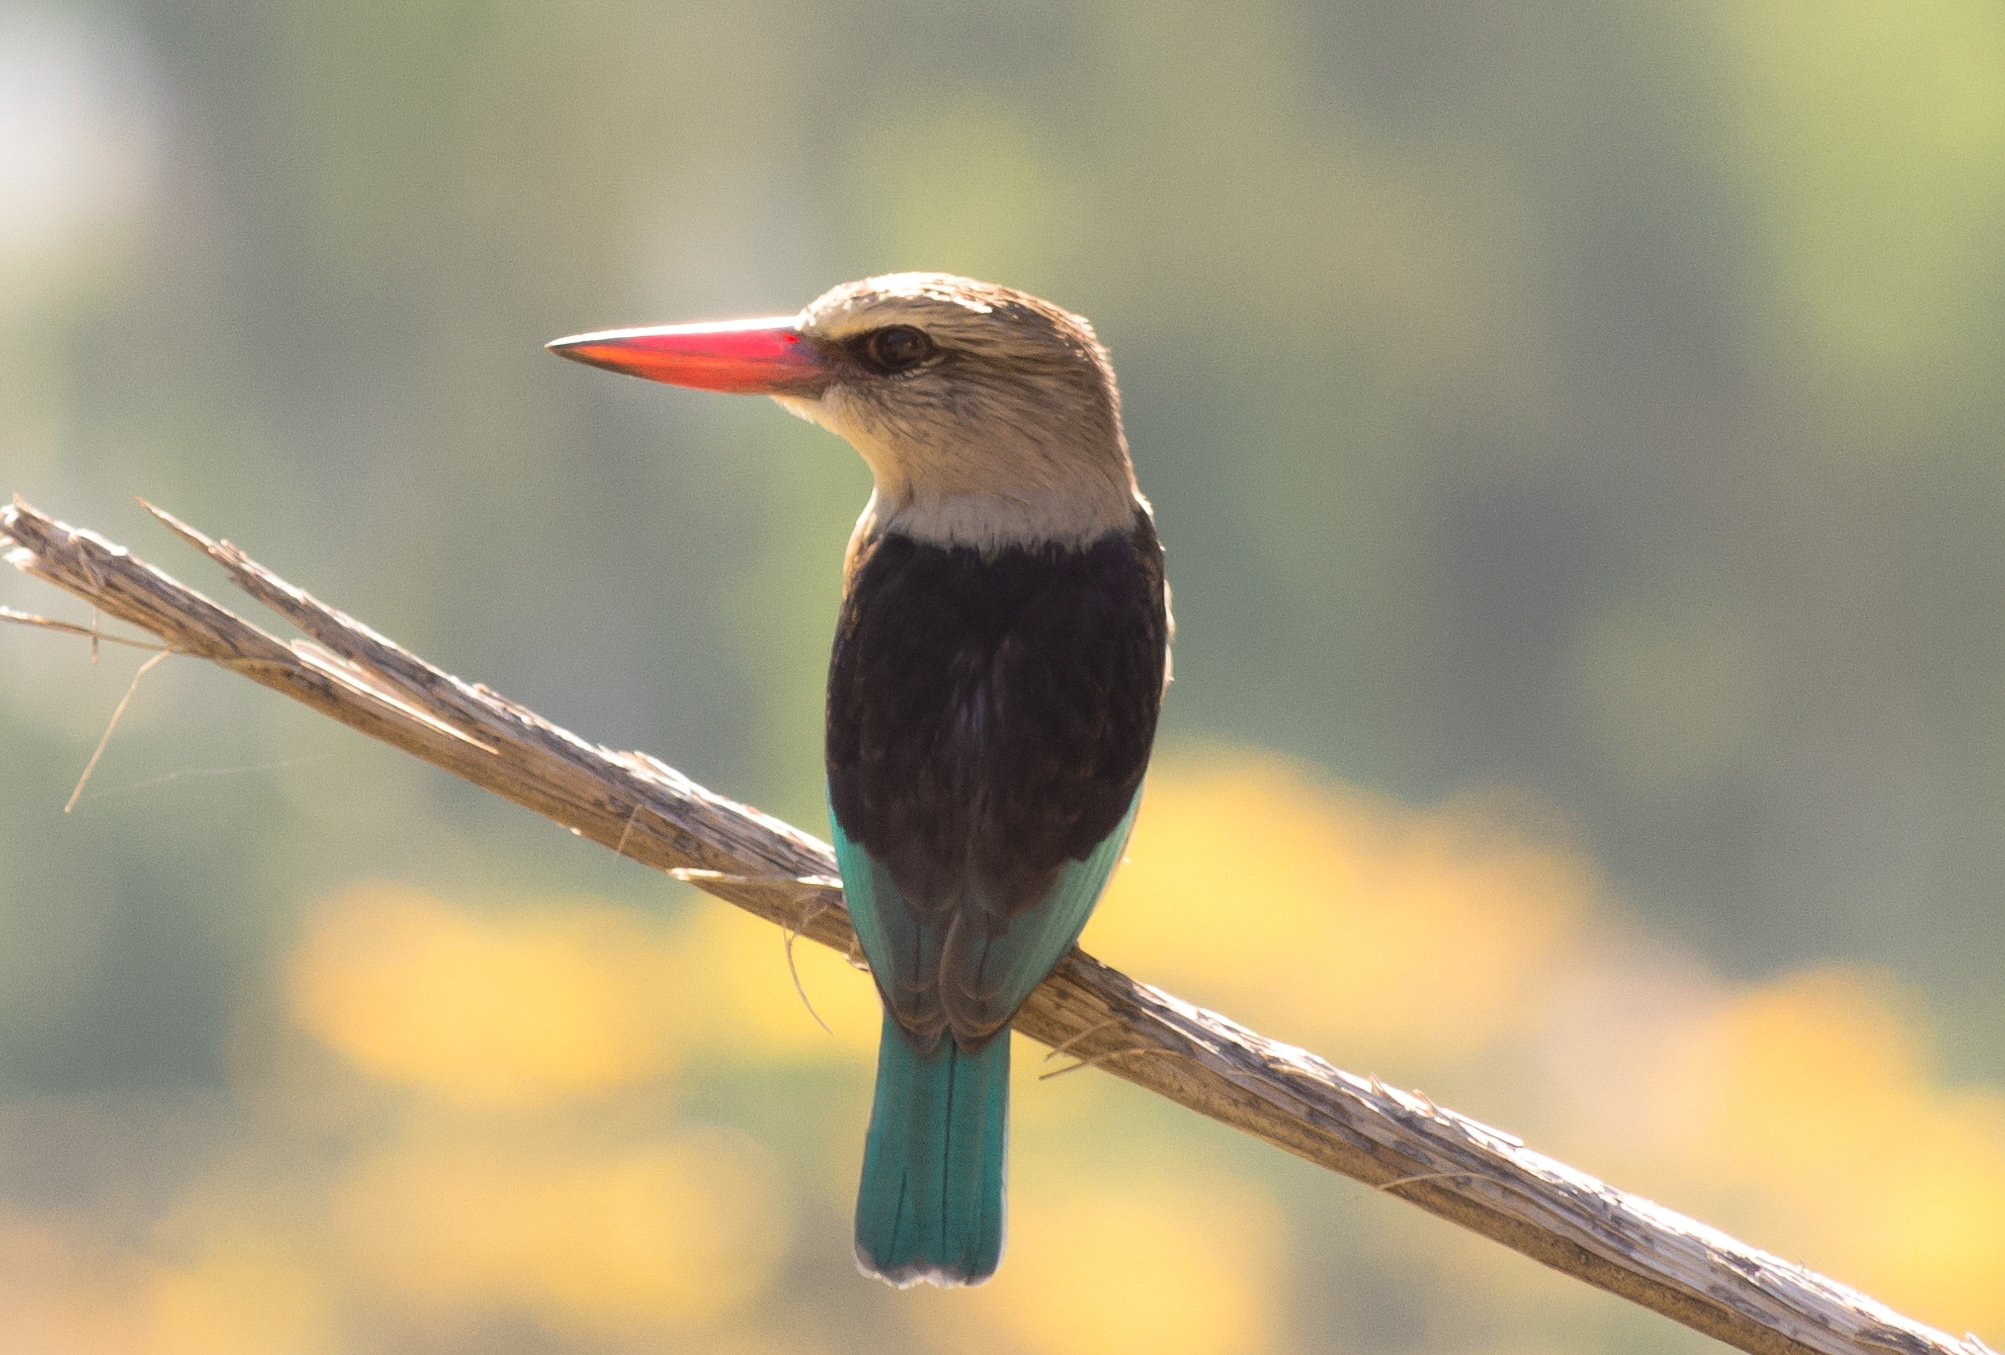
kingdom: Animalia
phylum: Chordata
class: Aves
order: Coraciiformes
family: Alcedinidae
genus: Halcyon
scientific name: Halcyon albiventris
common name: Brown-hooded kingfisher
